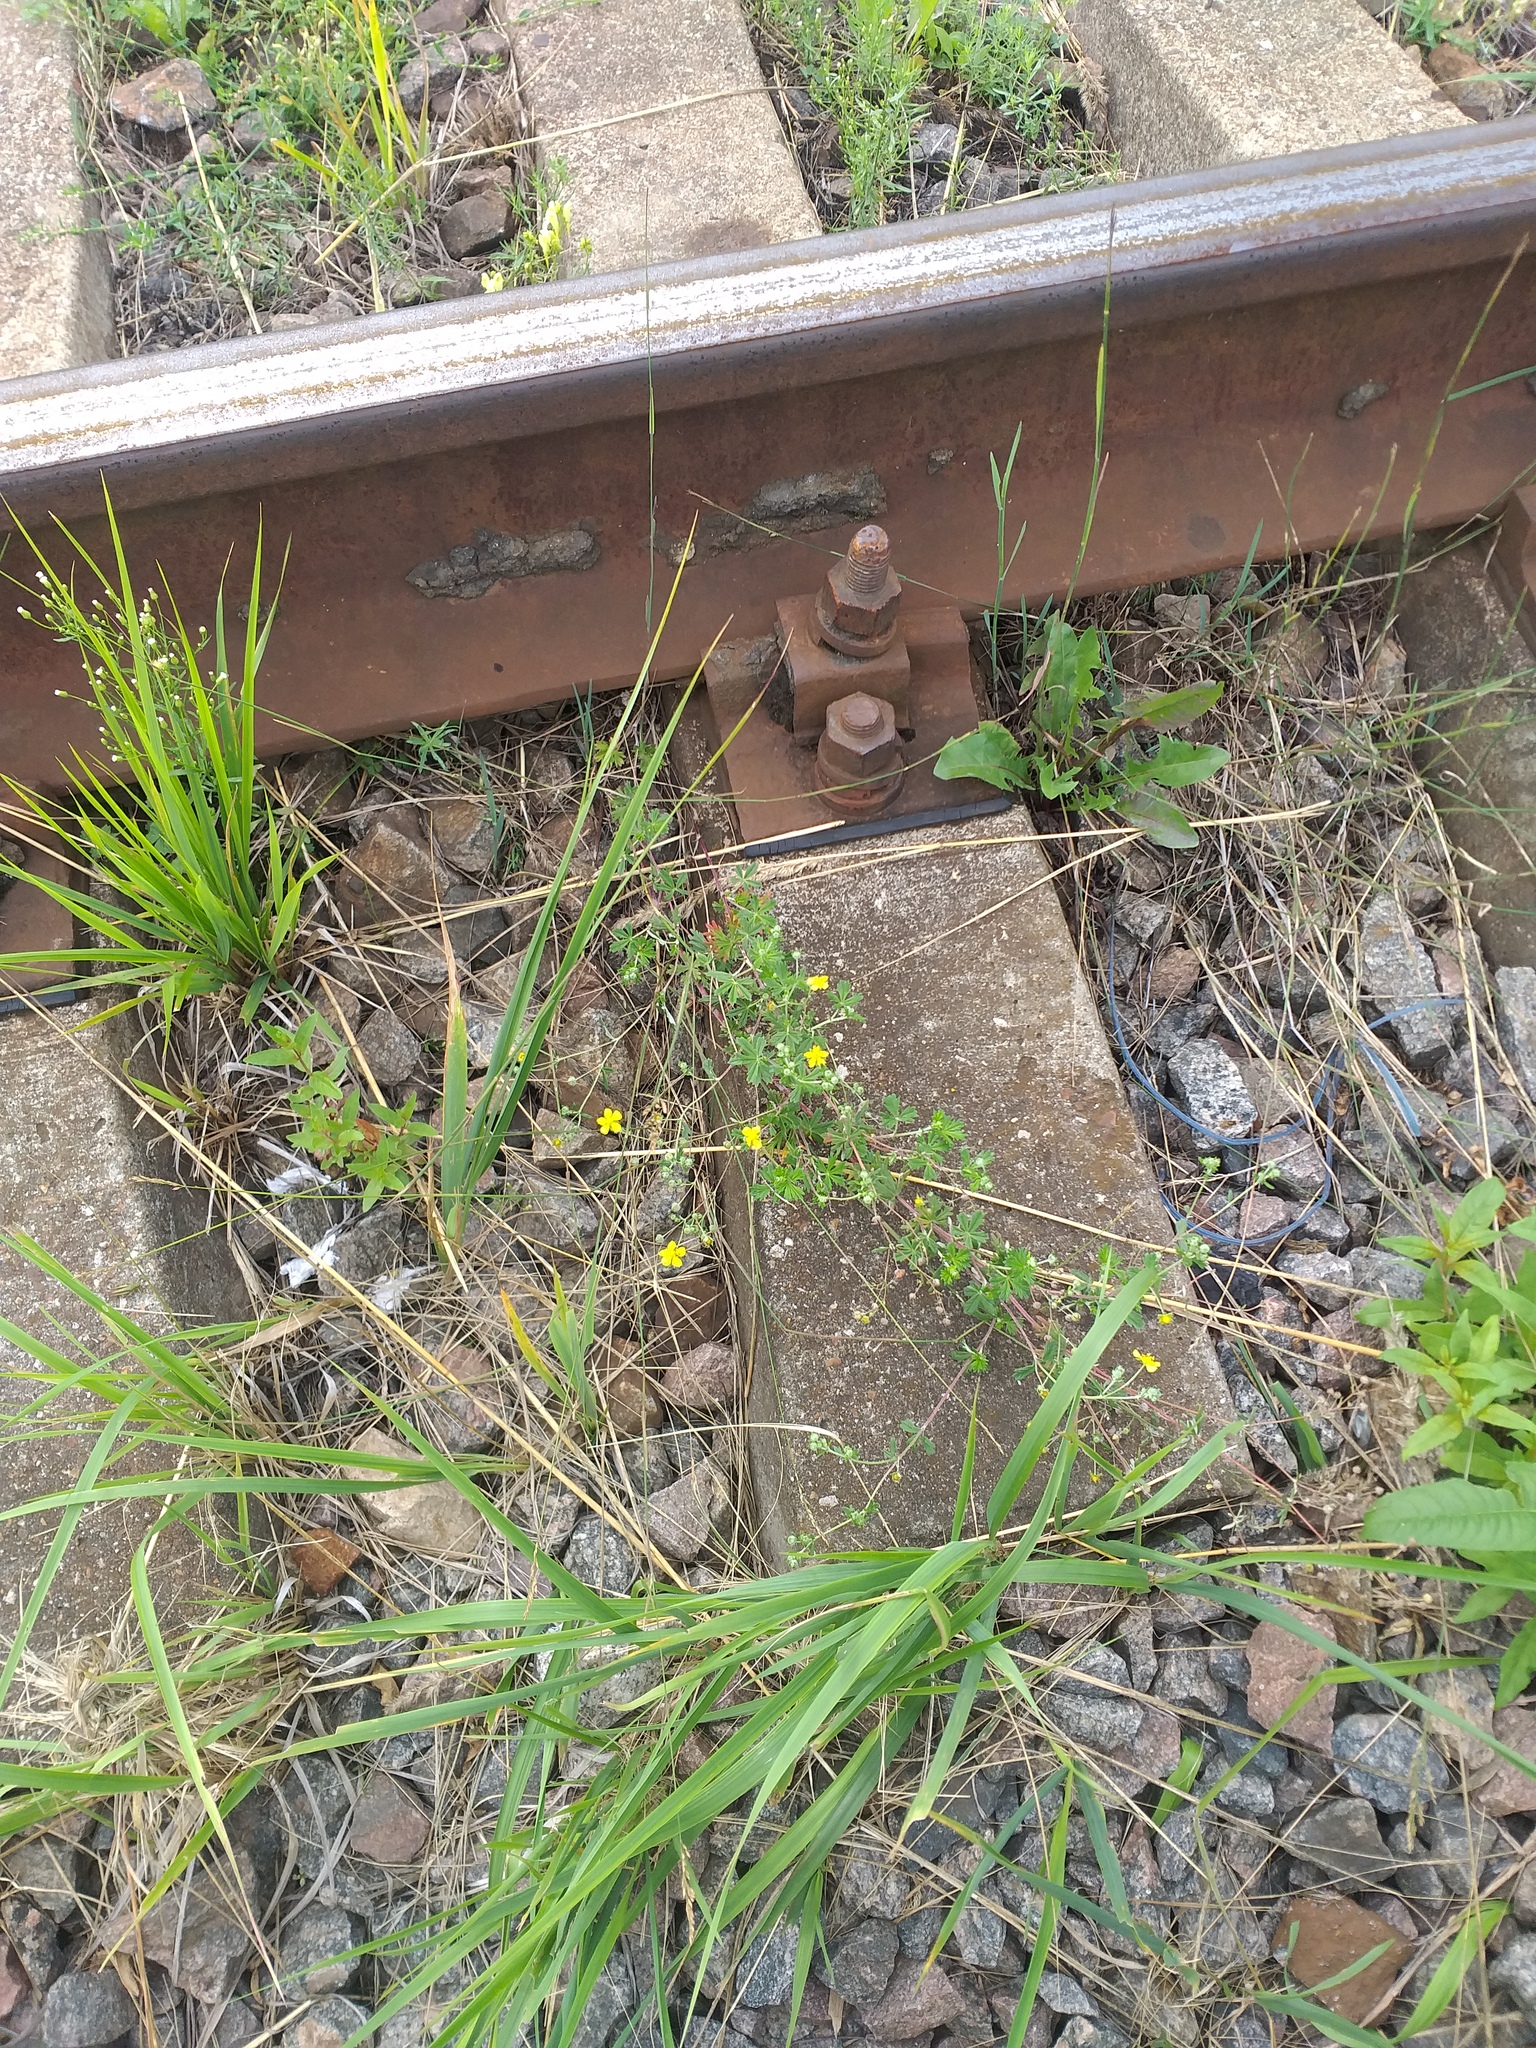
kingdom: Plantae
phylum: Tracheophyta
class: Magnoliopsida
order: Rosales
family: Rosaceae
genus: Potentilla
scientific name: Potentilla argentea
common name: Hoary cinquefoil
